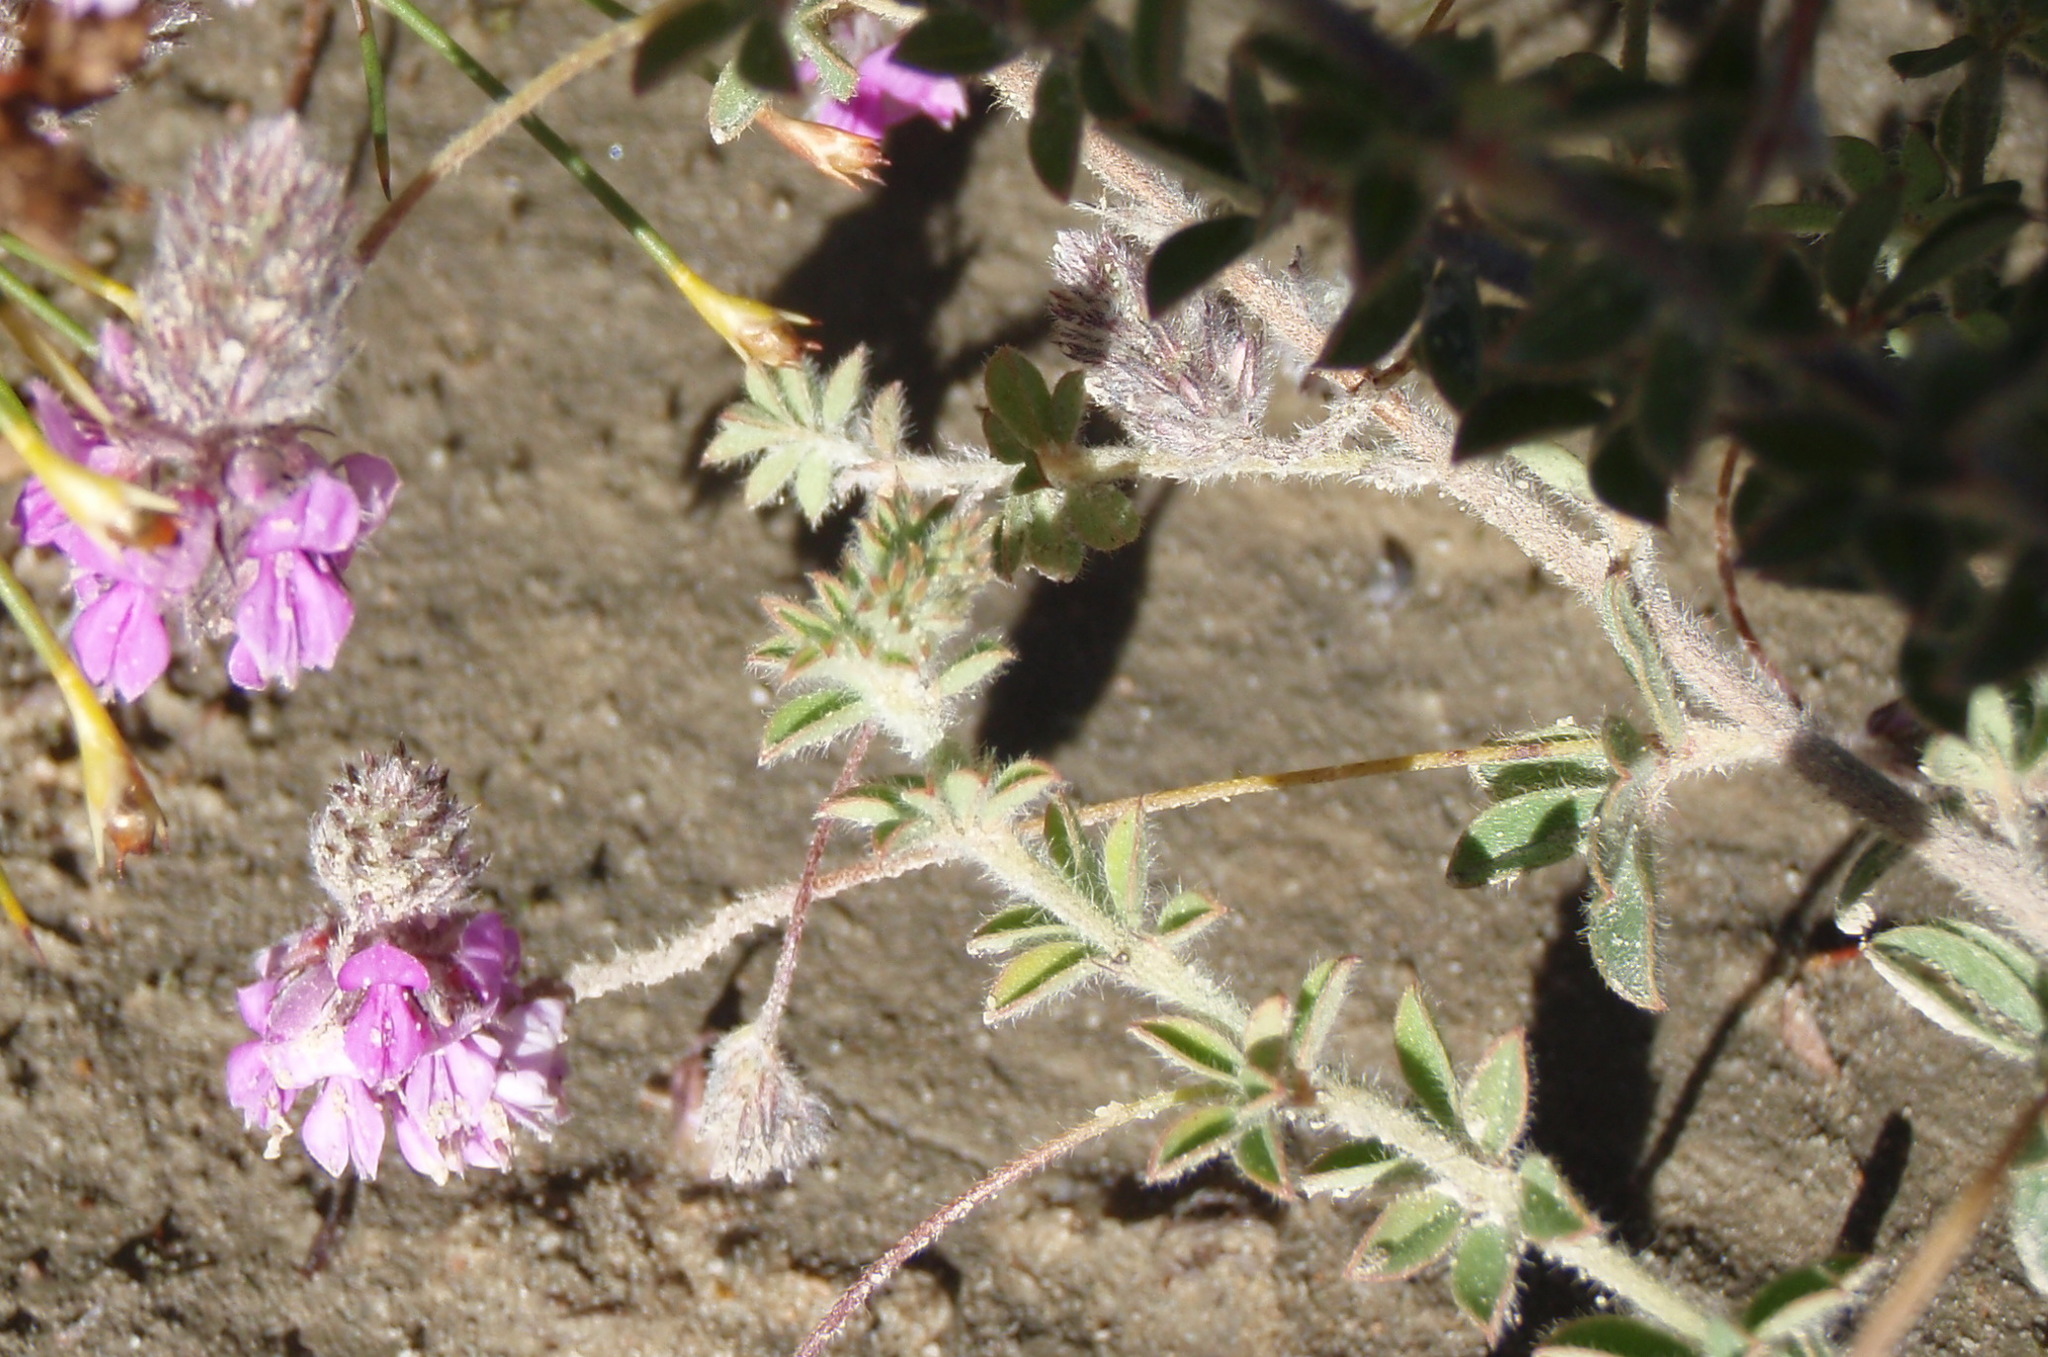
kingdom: Plantae
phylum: Tracheophyta
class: Magnoliopsida
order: Fabales
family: Fabaceae
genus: Indigofera
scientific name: Indigofera alopecuroides
